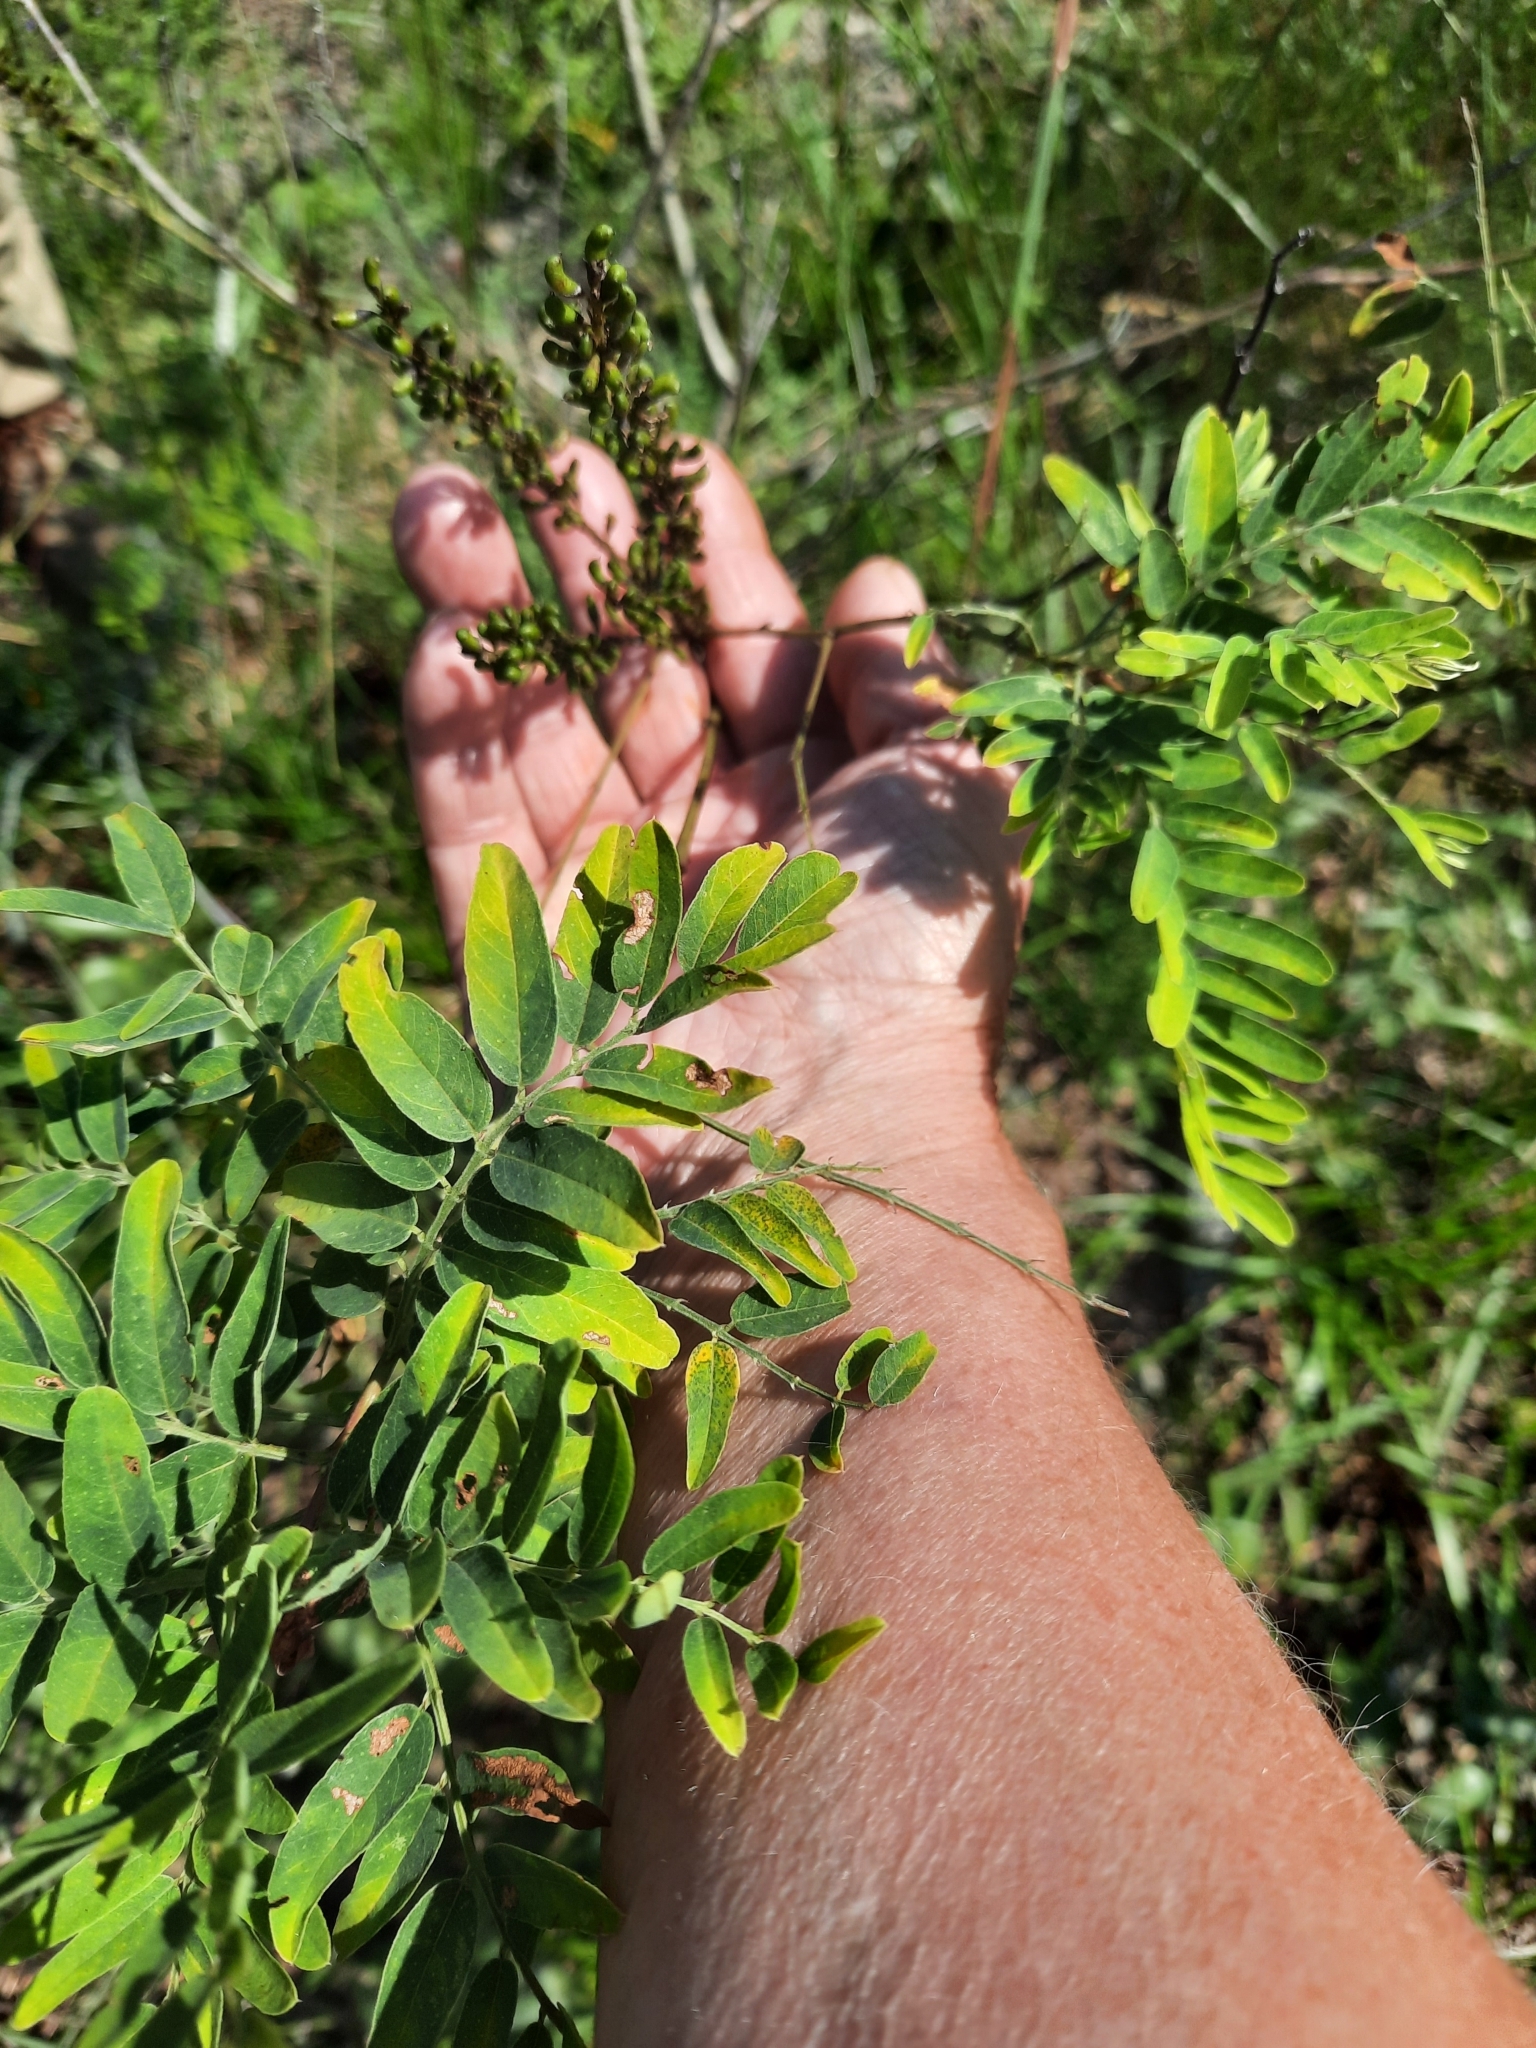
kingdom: Plantae
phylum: Tracheophyta
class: Magnoliopsida
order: Fabales
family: Fabaceae
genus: Amorpha
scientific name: Amorpha fruticosa
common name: False indigo
